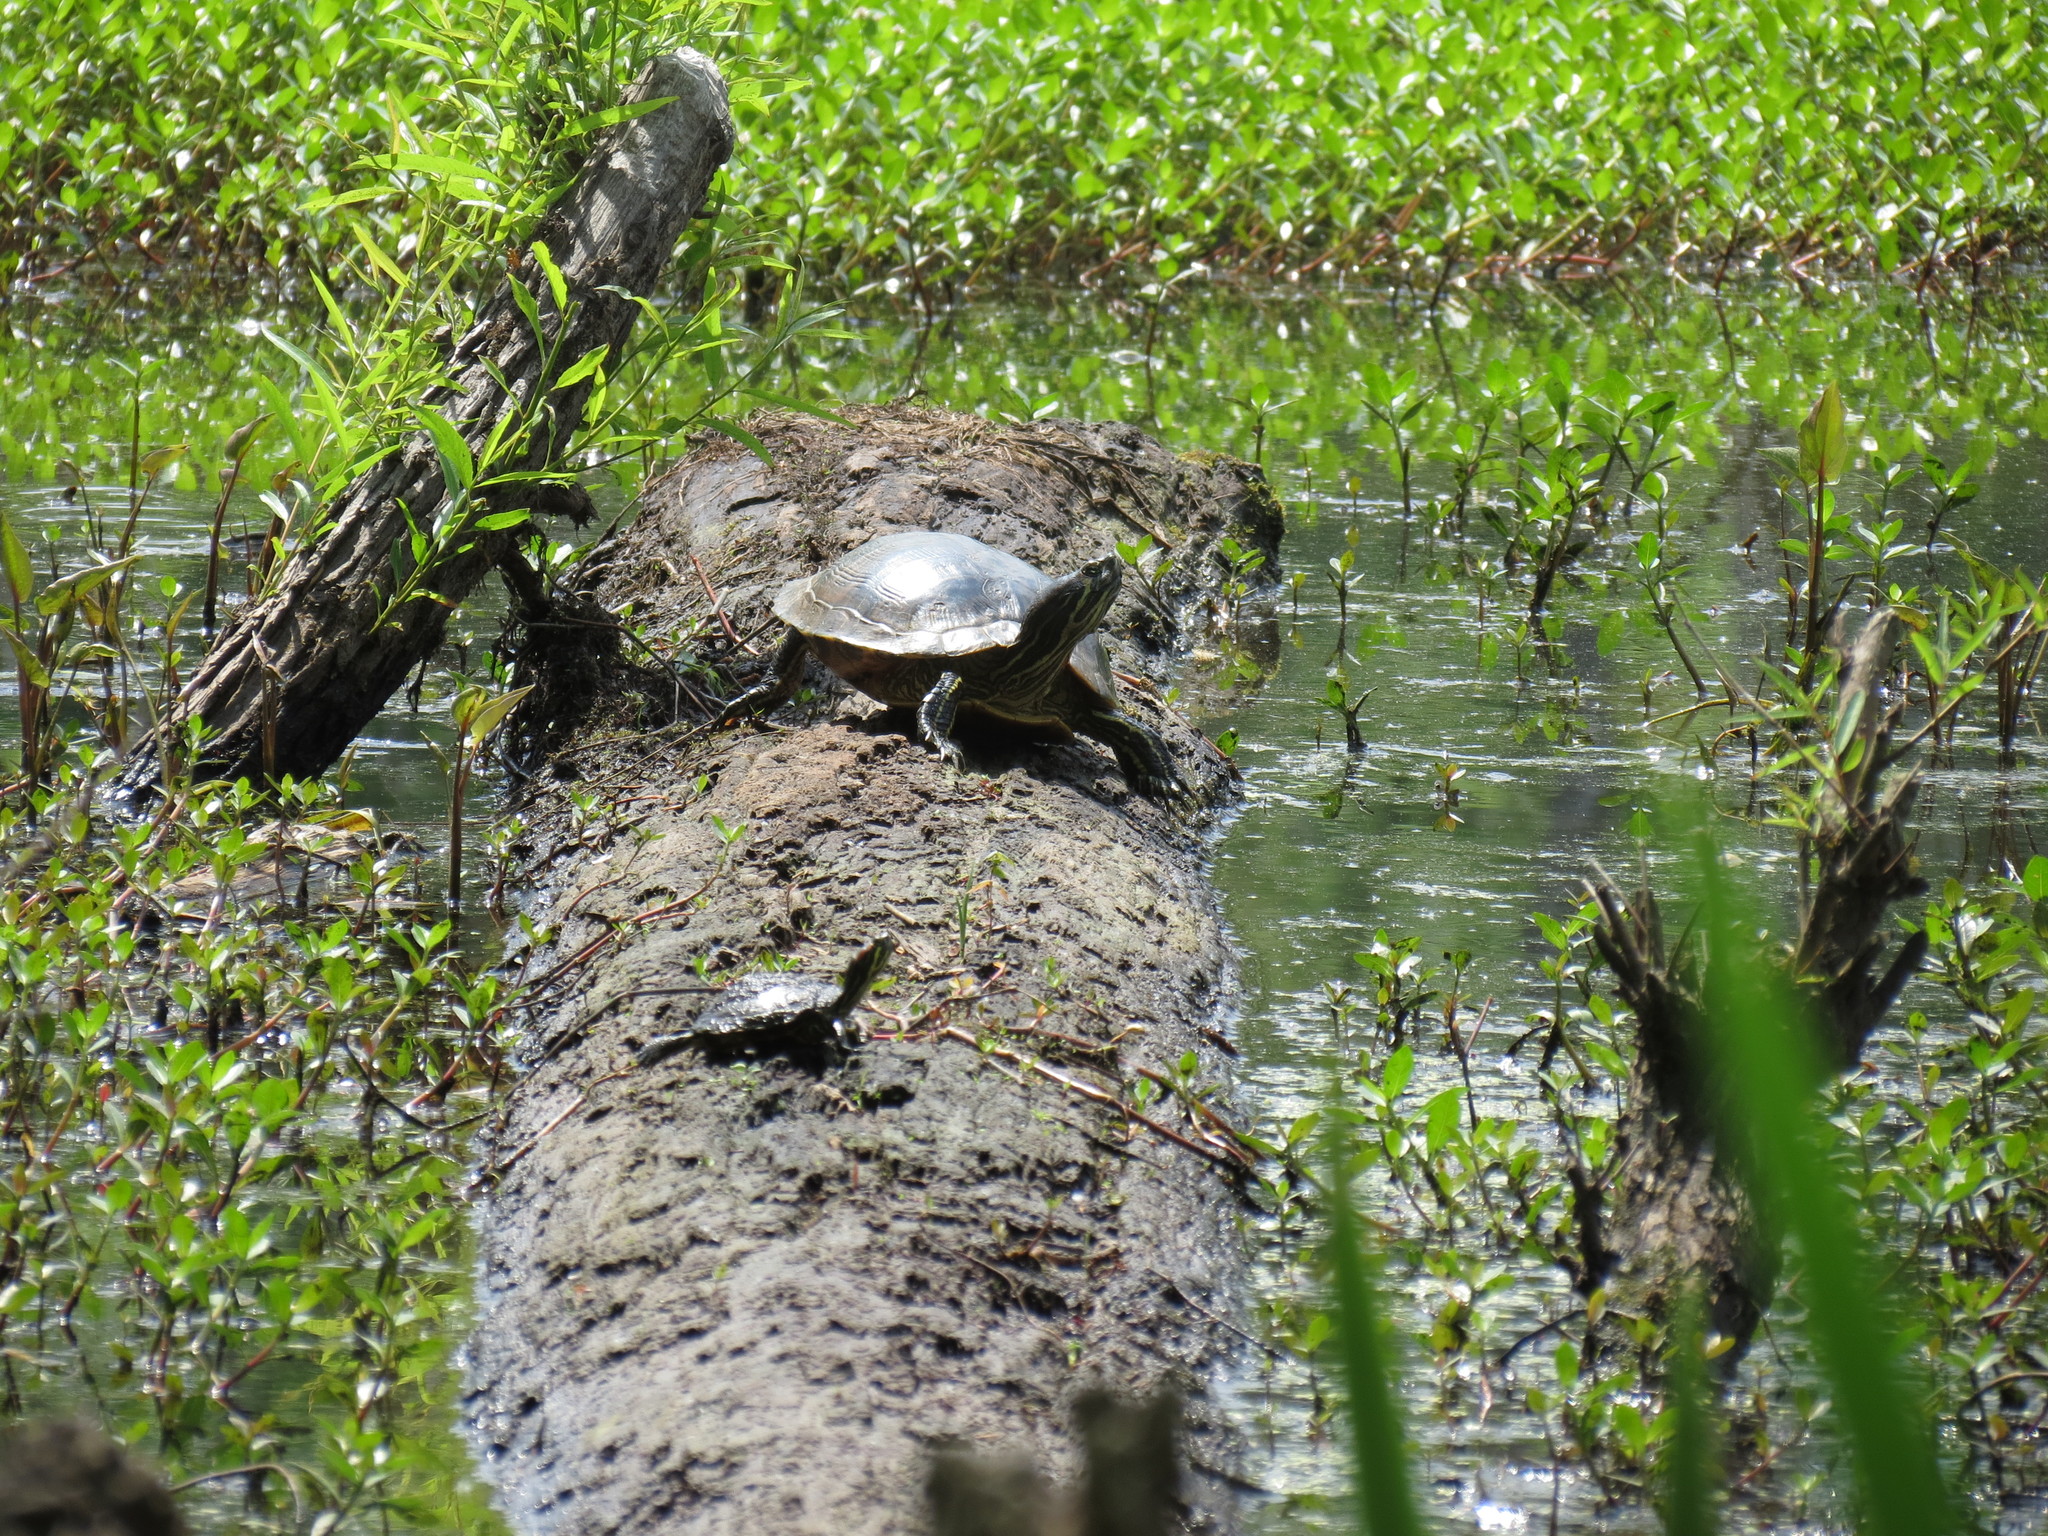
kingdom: Animalia
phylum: Chordata
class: Testudines
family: Emydidae
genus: Trachemys
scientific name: Trachemys scripta
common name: Slider
